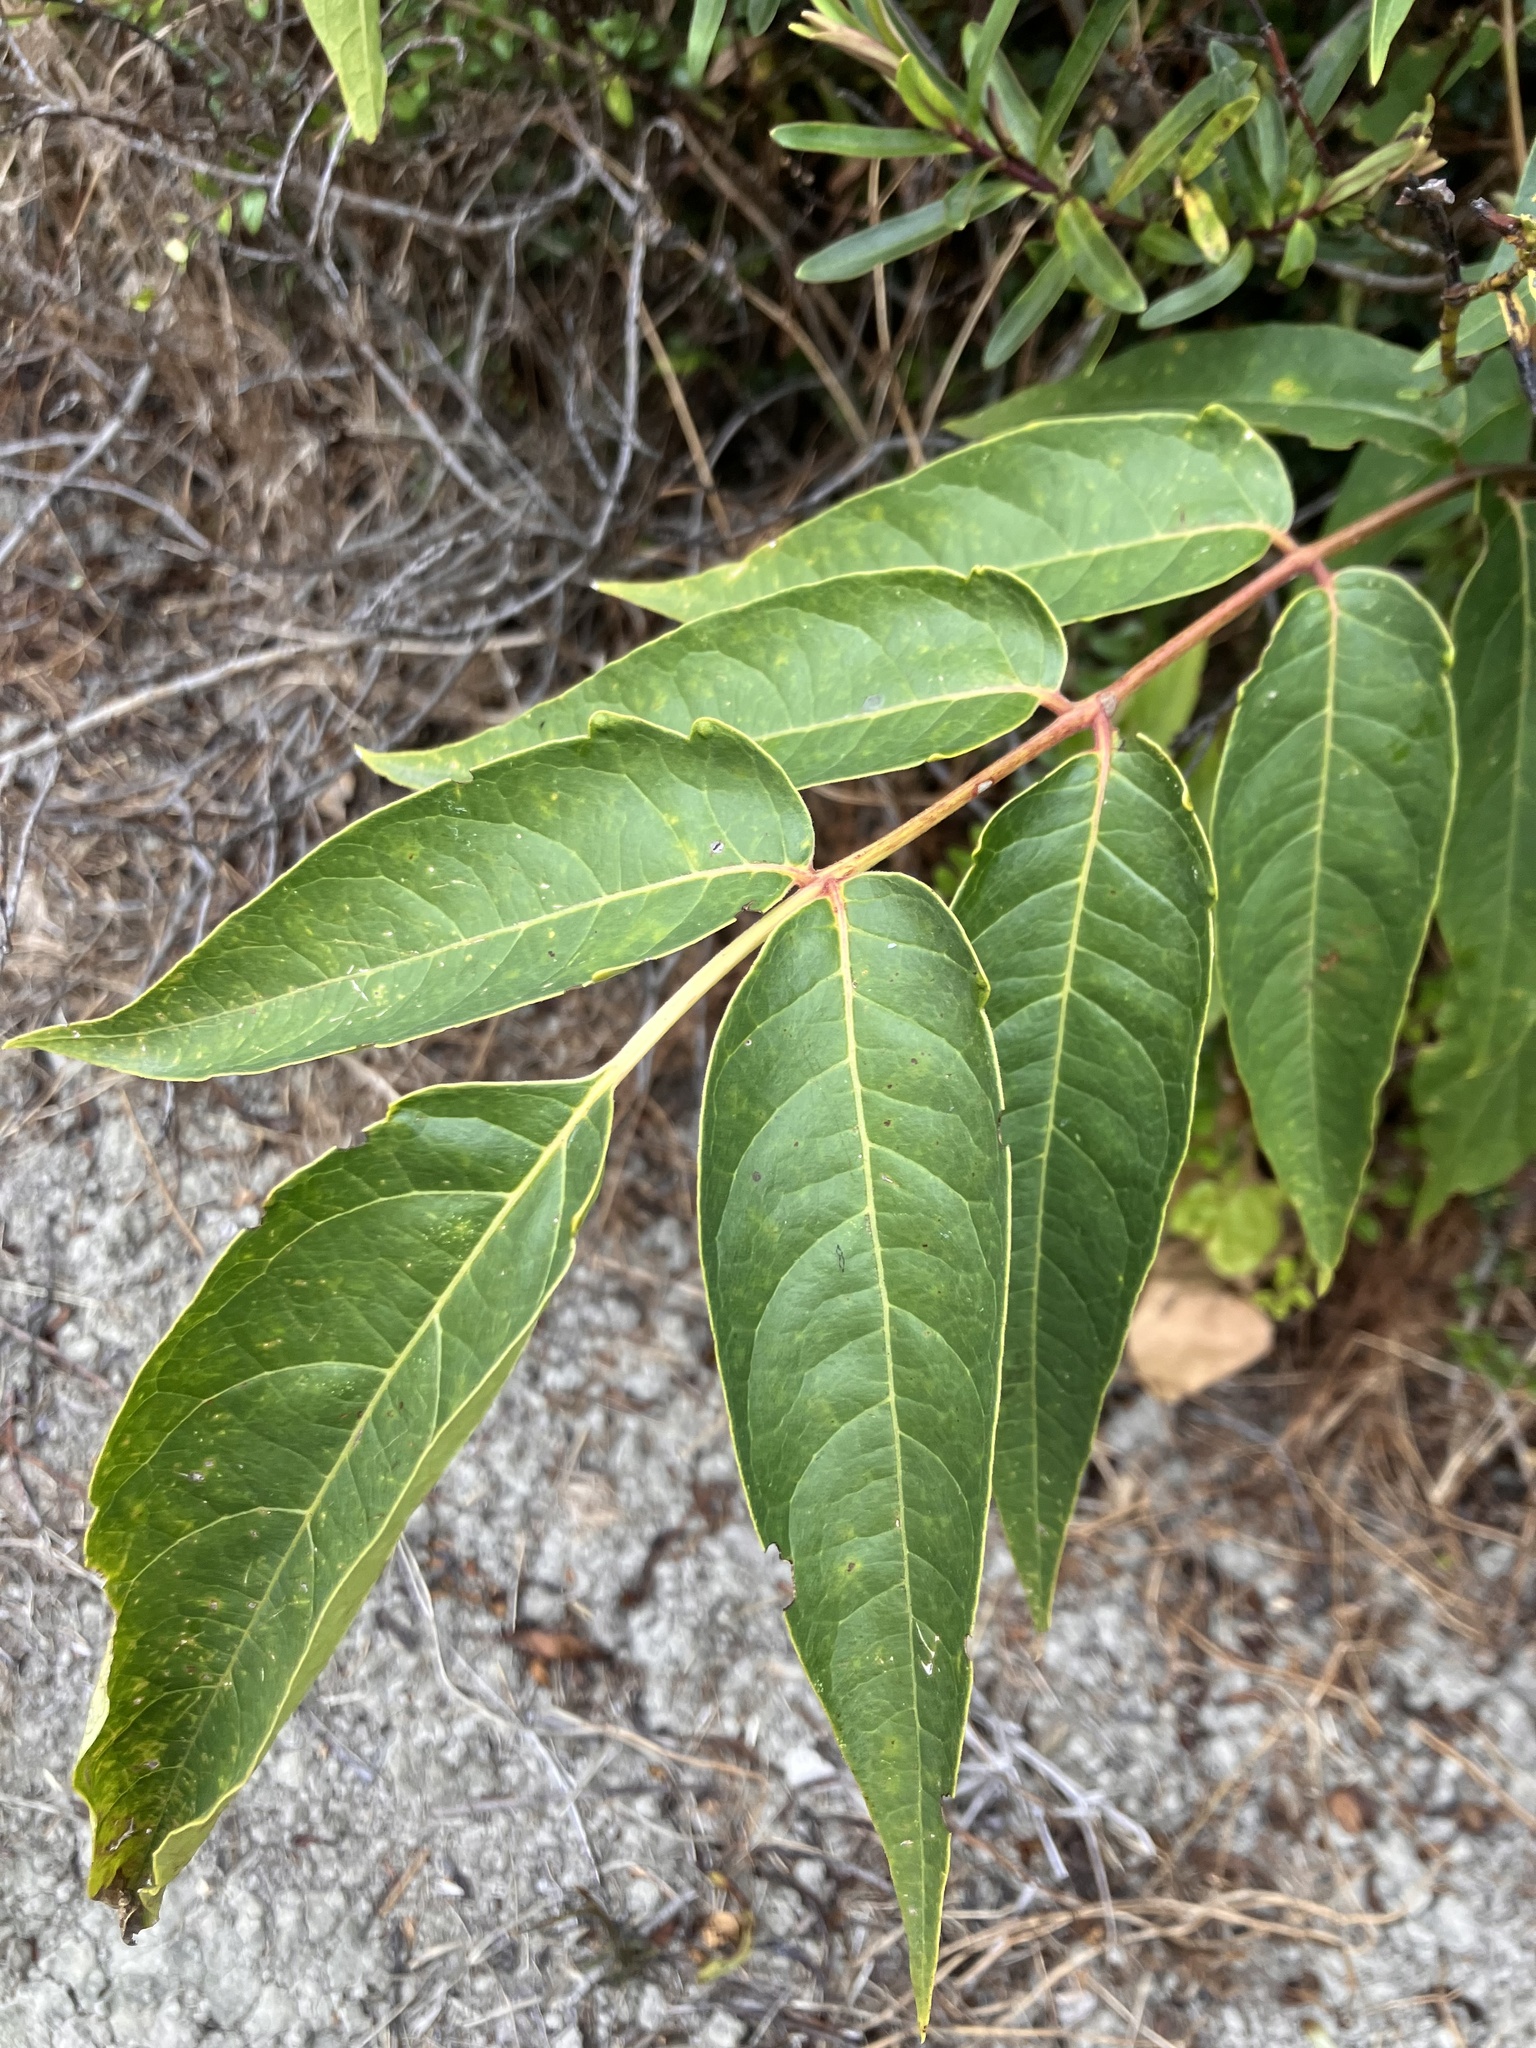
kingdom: Plantae
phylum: Tracheophyta
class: Magnoliopsida
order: Sapindales
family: Simaroubaceae
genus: Ailanthus
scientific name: Ailanthus altissima
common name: Tree-of-heaven
